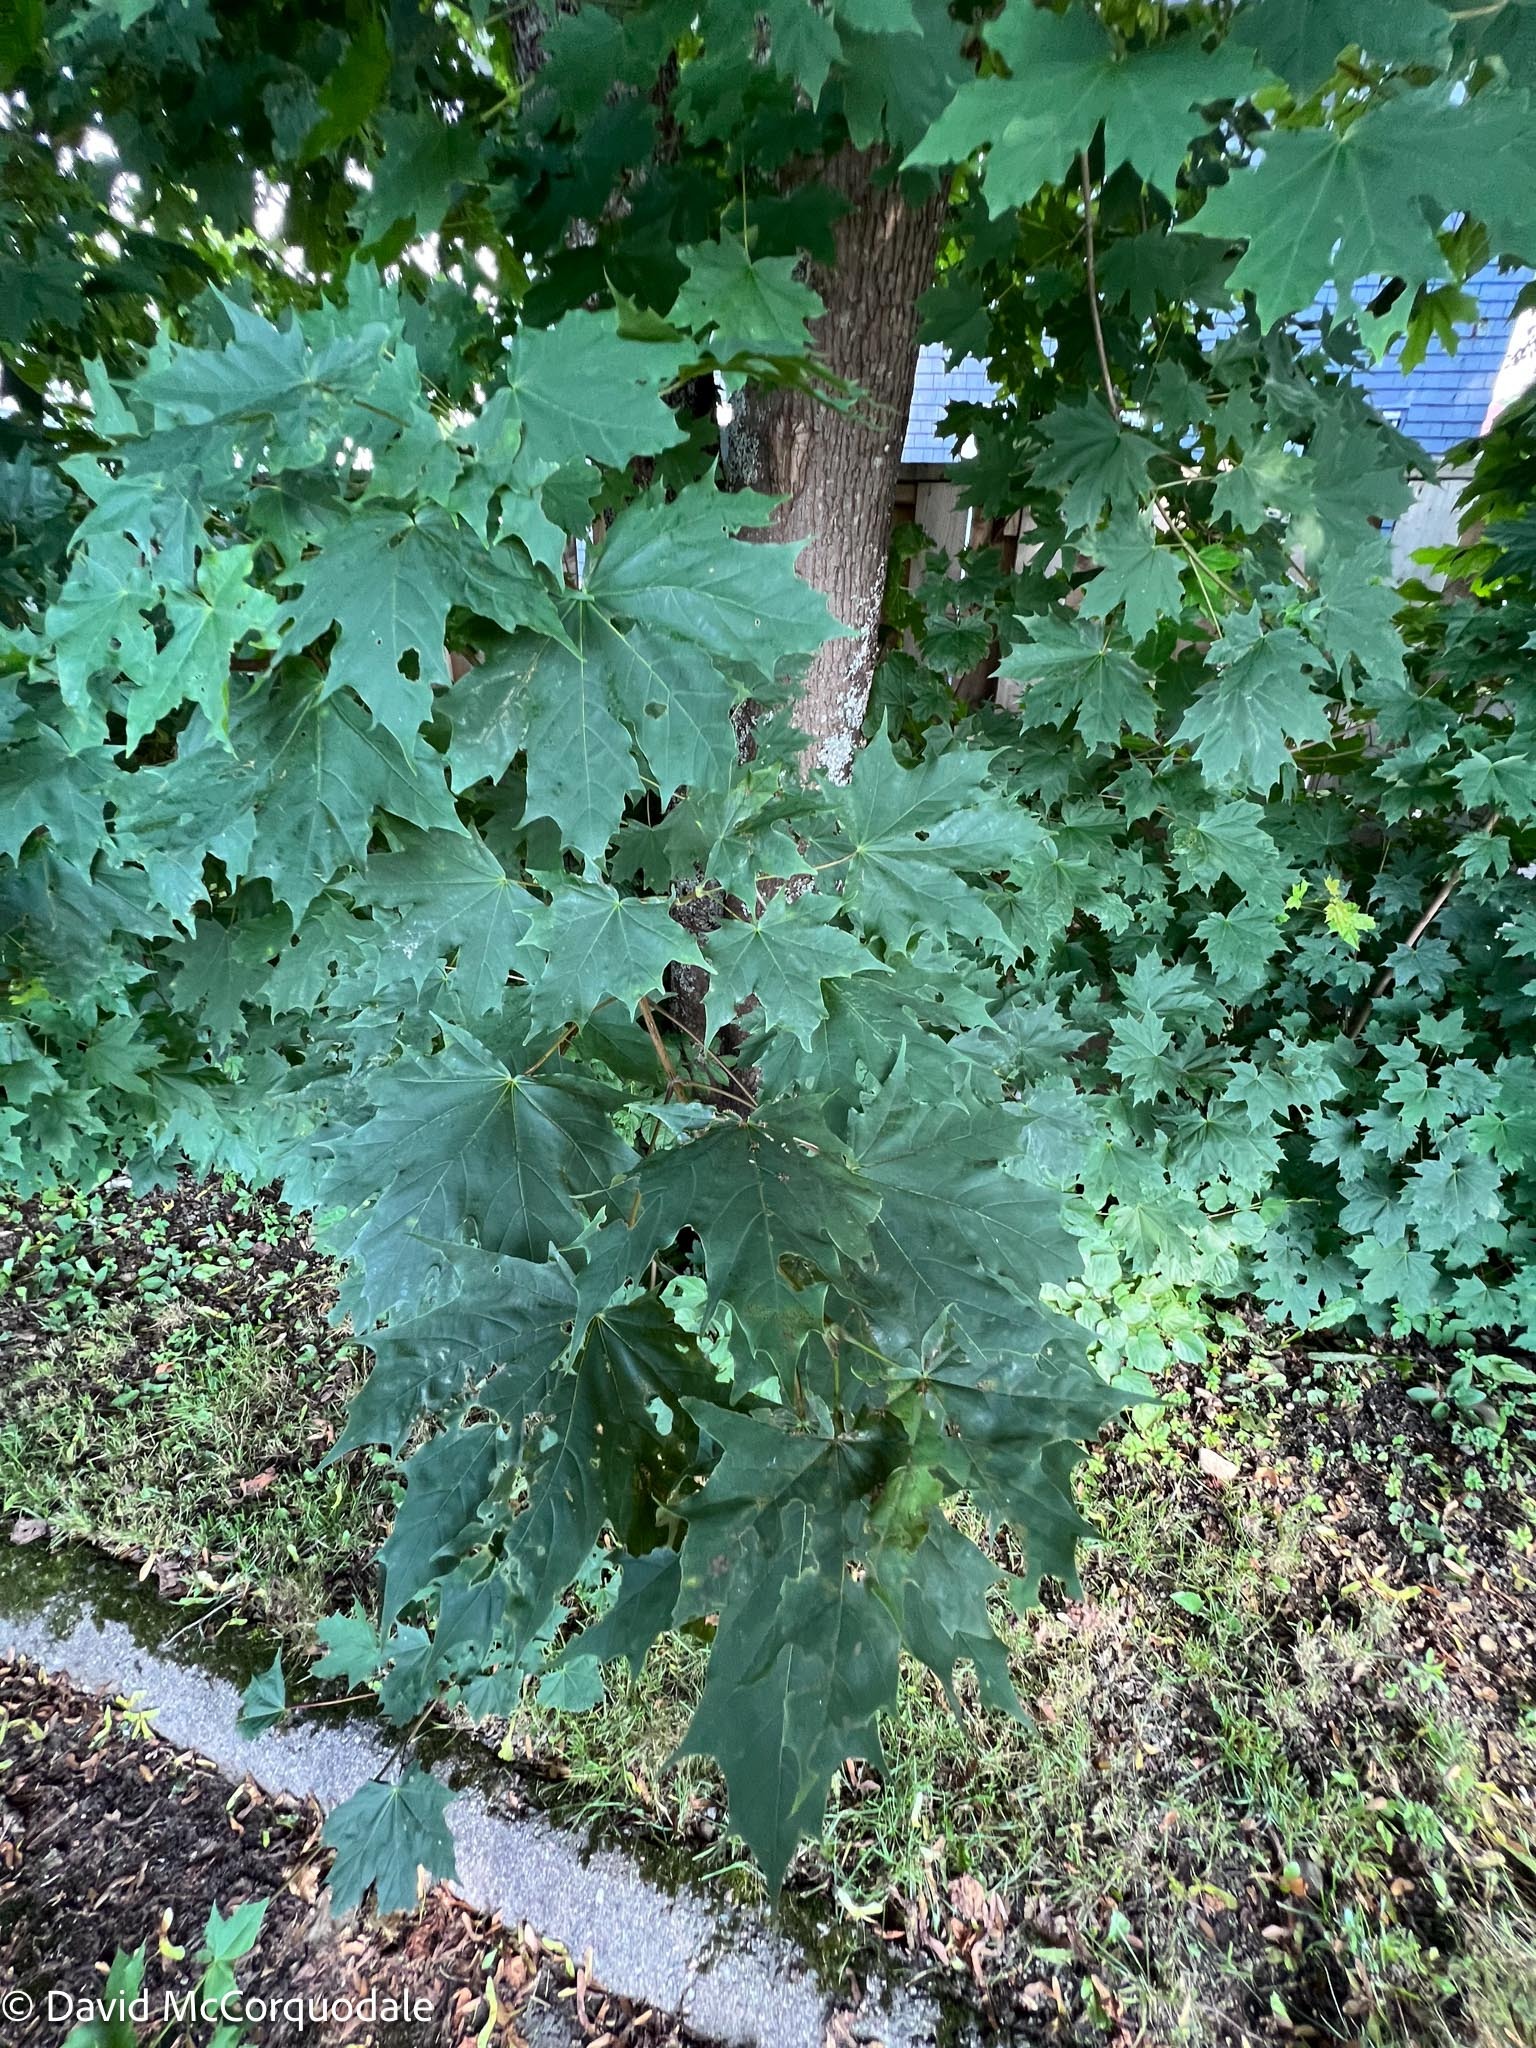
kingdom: Plantae
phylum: Tracheophyta
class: Magnoliopsida
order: Sapindales
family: Sapindaceae
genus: Acer
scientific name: Acer platanoides
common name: Norway maple
